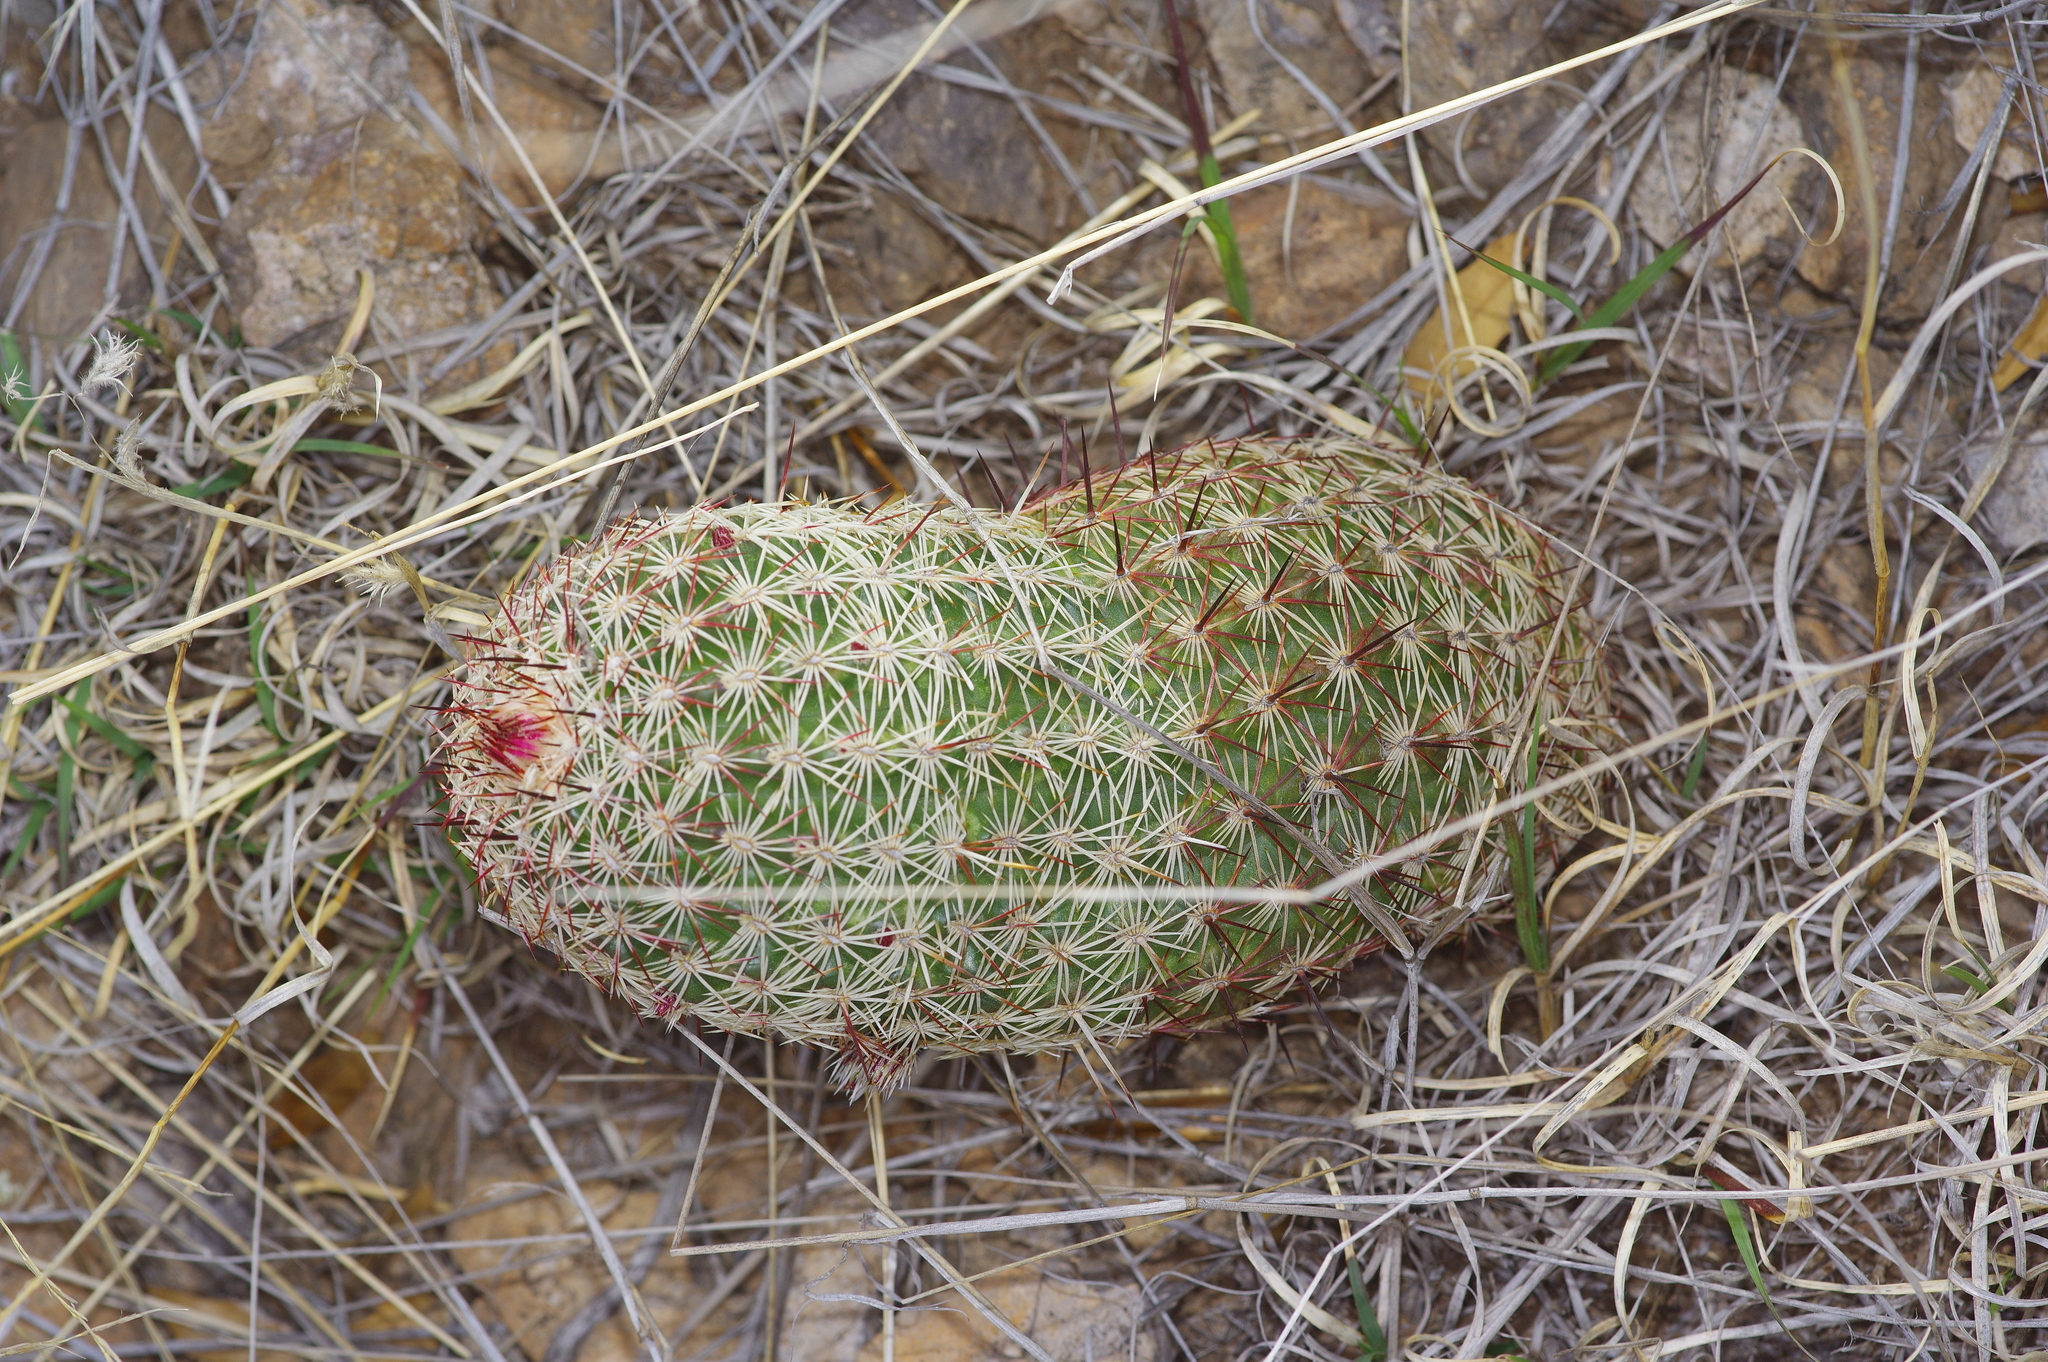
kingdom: Plantae
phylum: Tracheophyta
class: Magnoliopsida
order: Caryophyllales
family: Cactaceae
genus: Echinocereus
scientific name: Echinocereus viridiflorus
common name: Nylon hedgehog cactus
